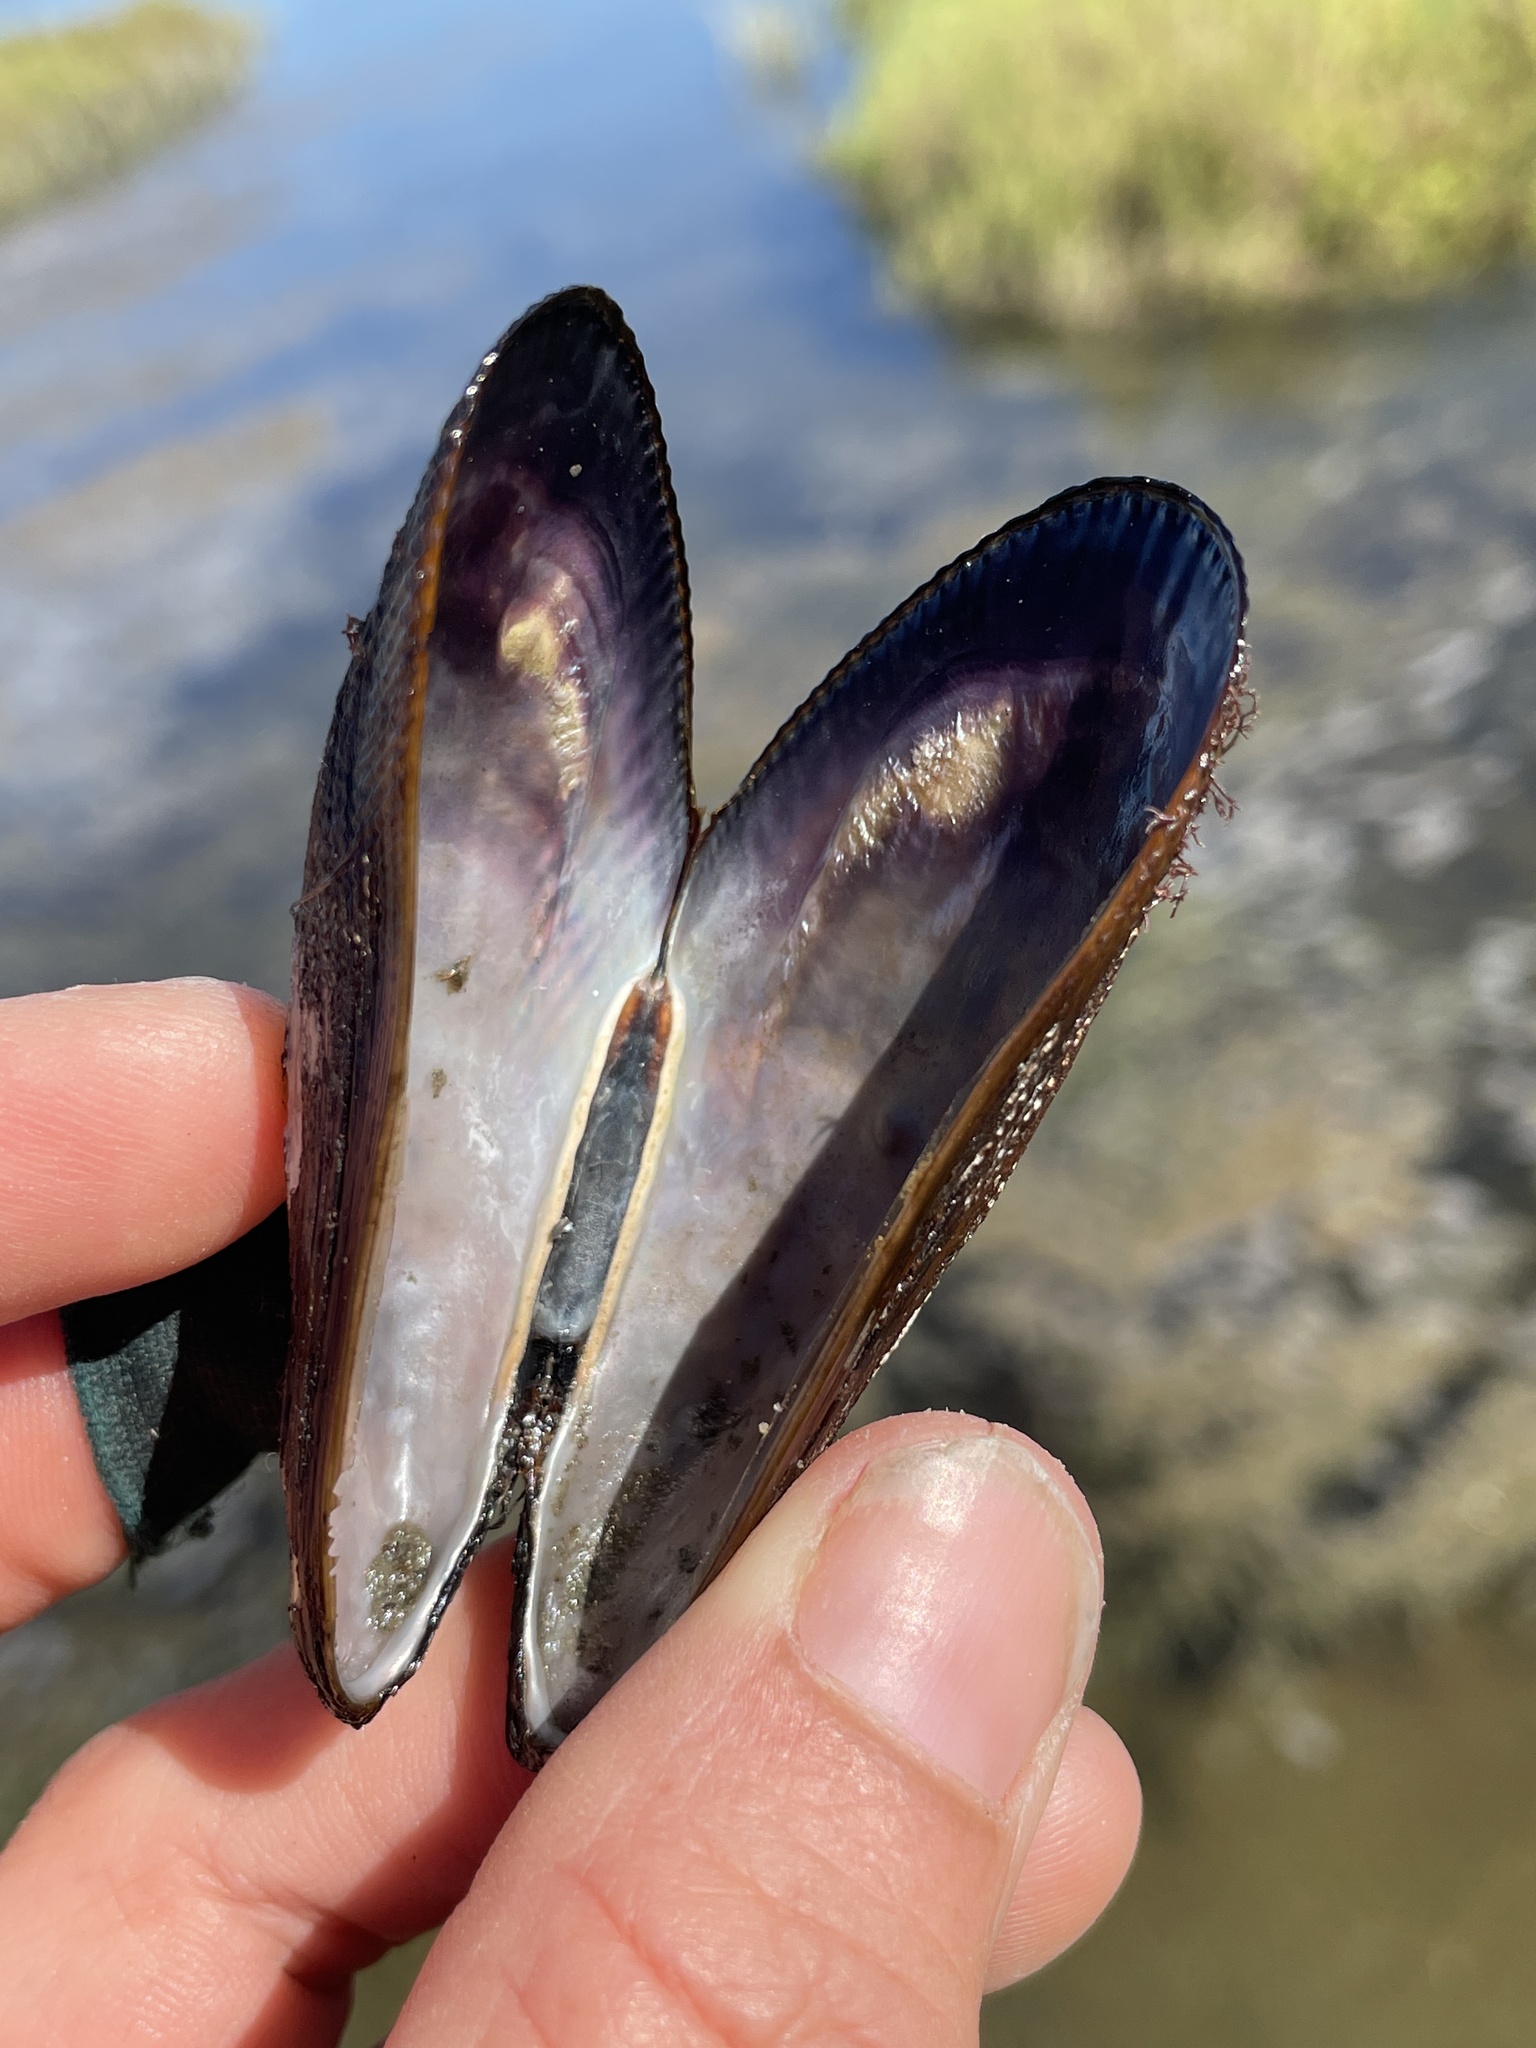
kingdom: Animalia
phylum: Mollusca
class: Bivalvia
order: Mytilida
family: Mytilidae
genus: Geukensia
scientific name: Geukensia demissa
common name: Ribbed mussel
